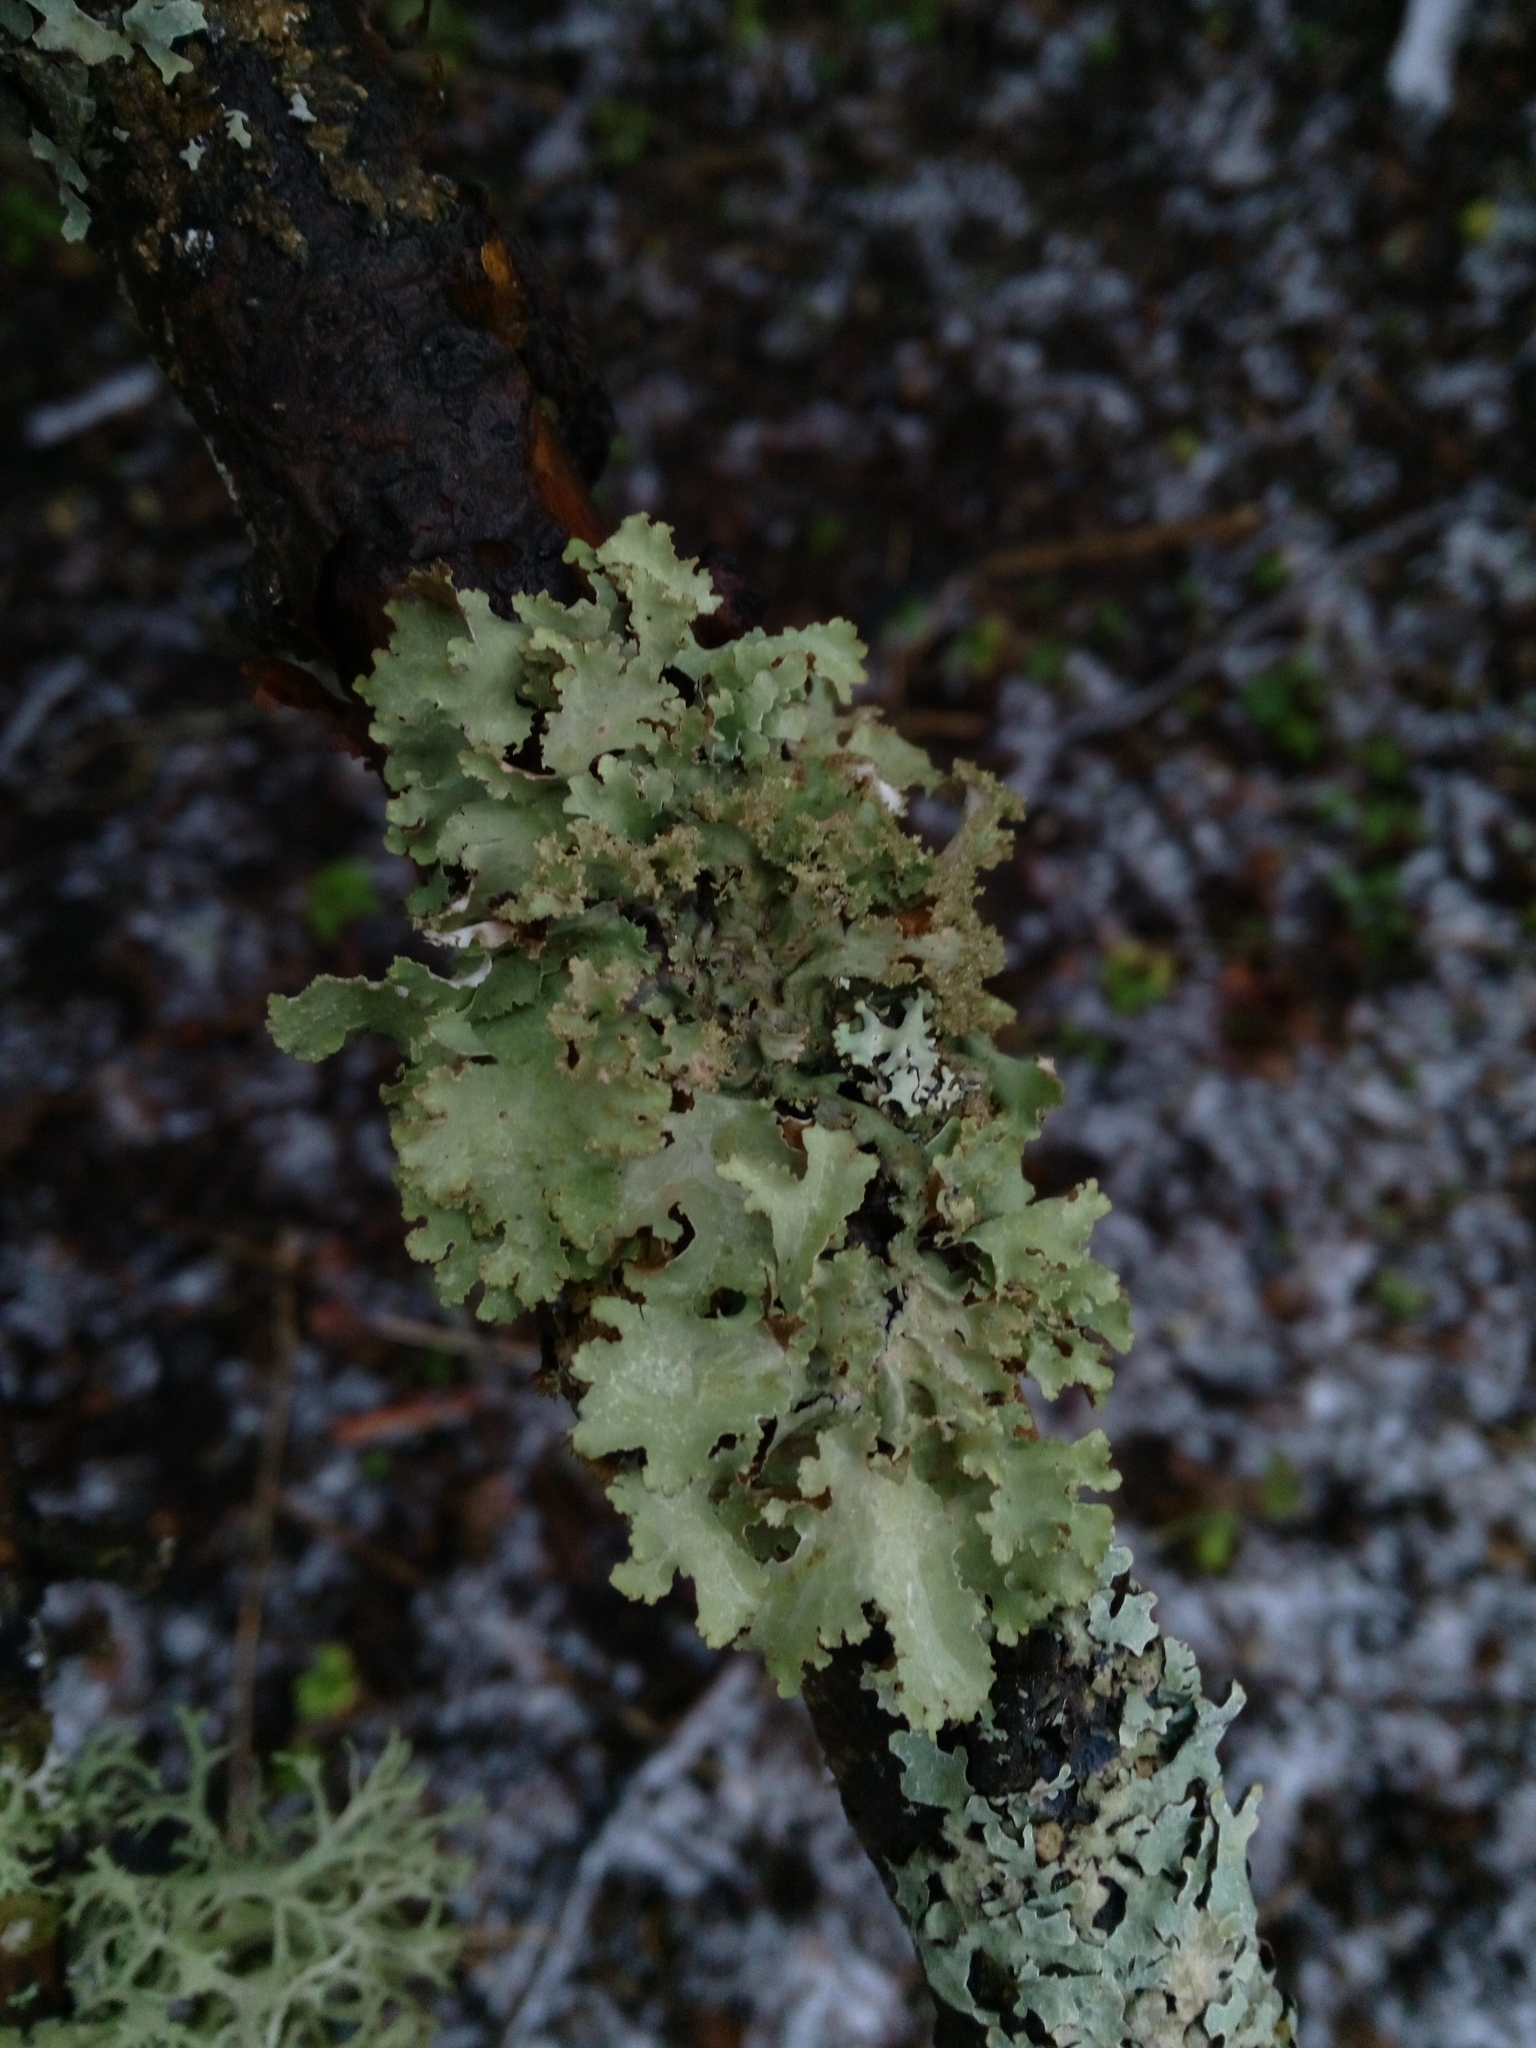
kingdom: Fungi
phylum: Ascomycota
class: Lecanoromycetes
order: Lecanorales
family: Parmeliaceae
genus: Platismatia
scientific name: Platismatia glauca
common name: Varied rag lichen
